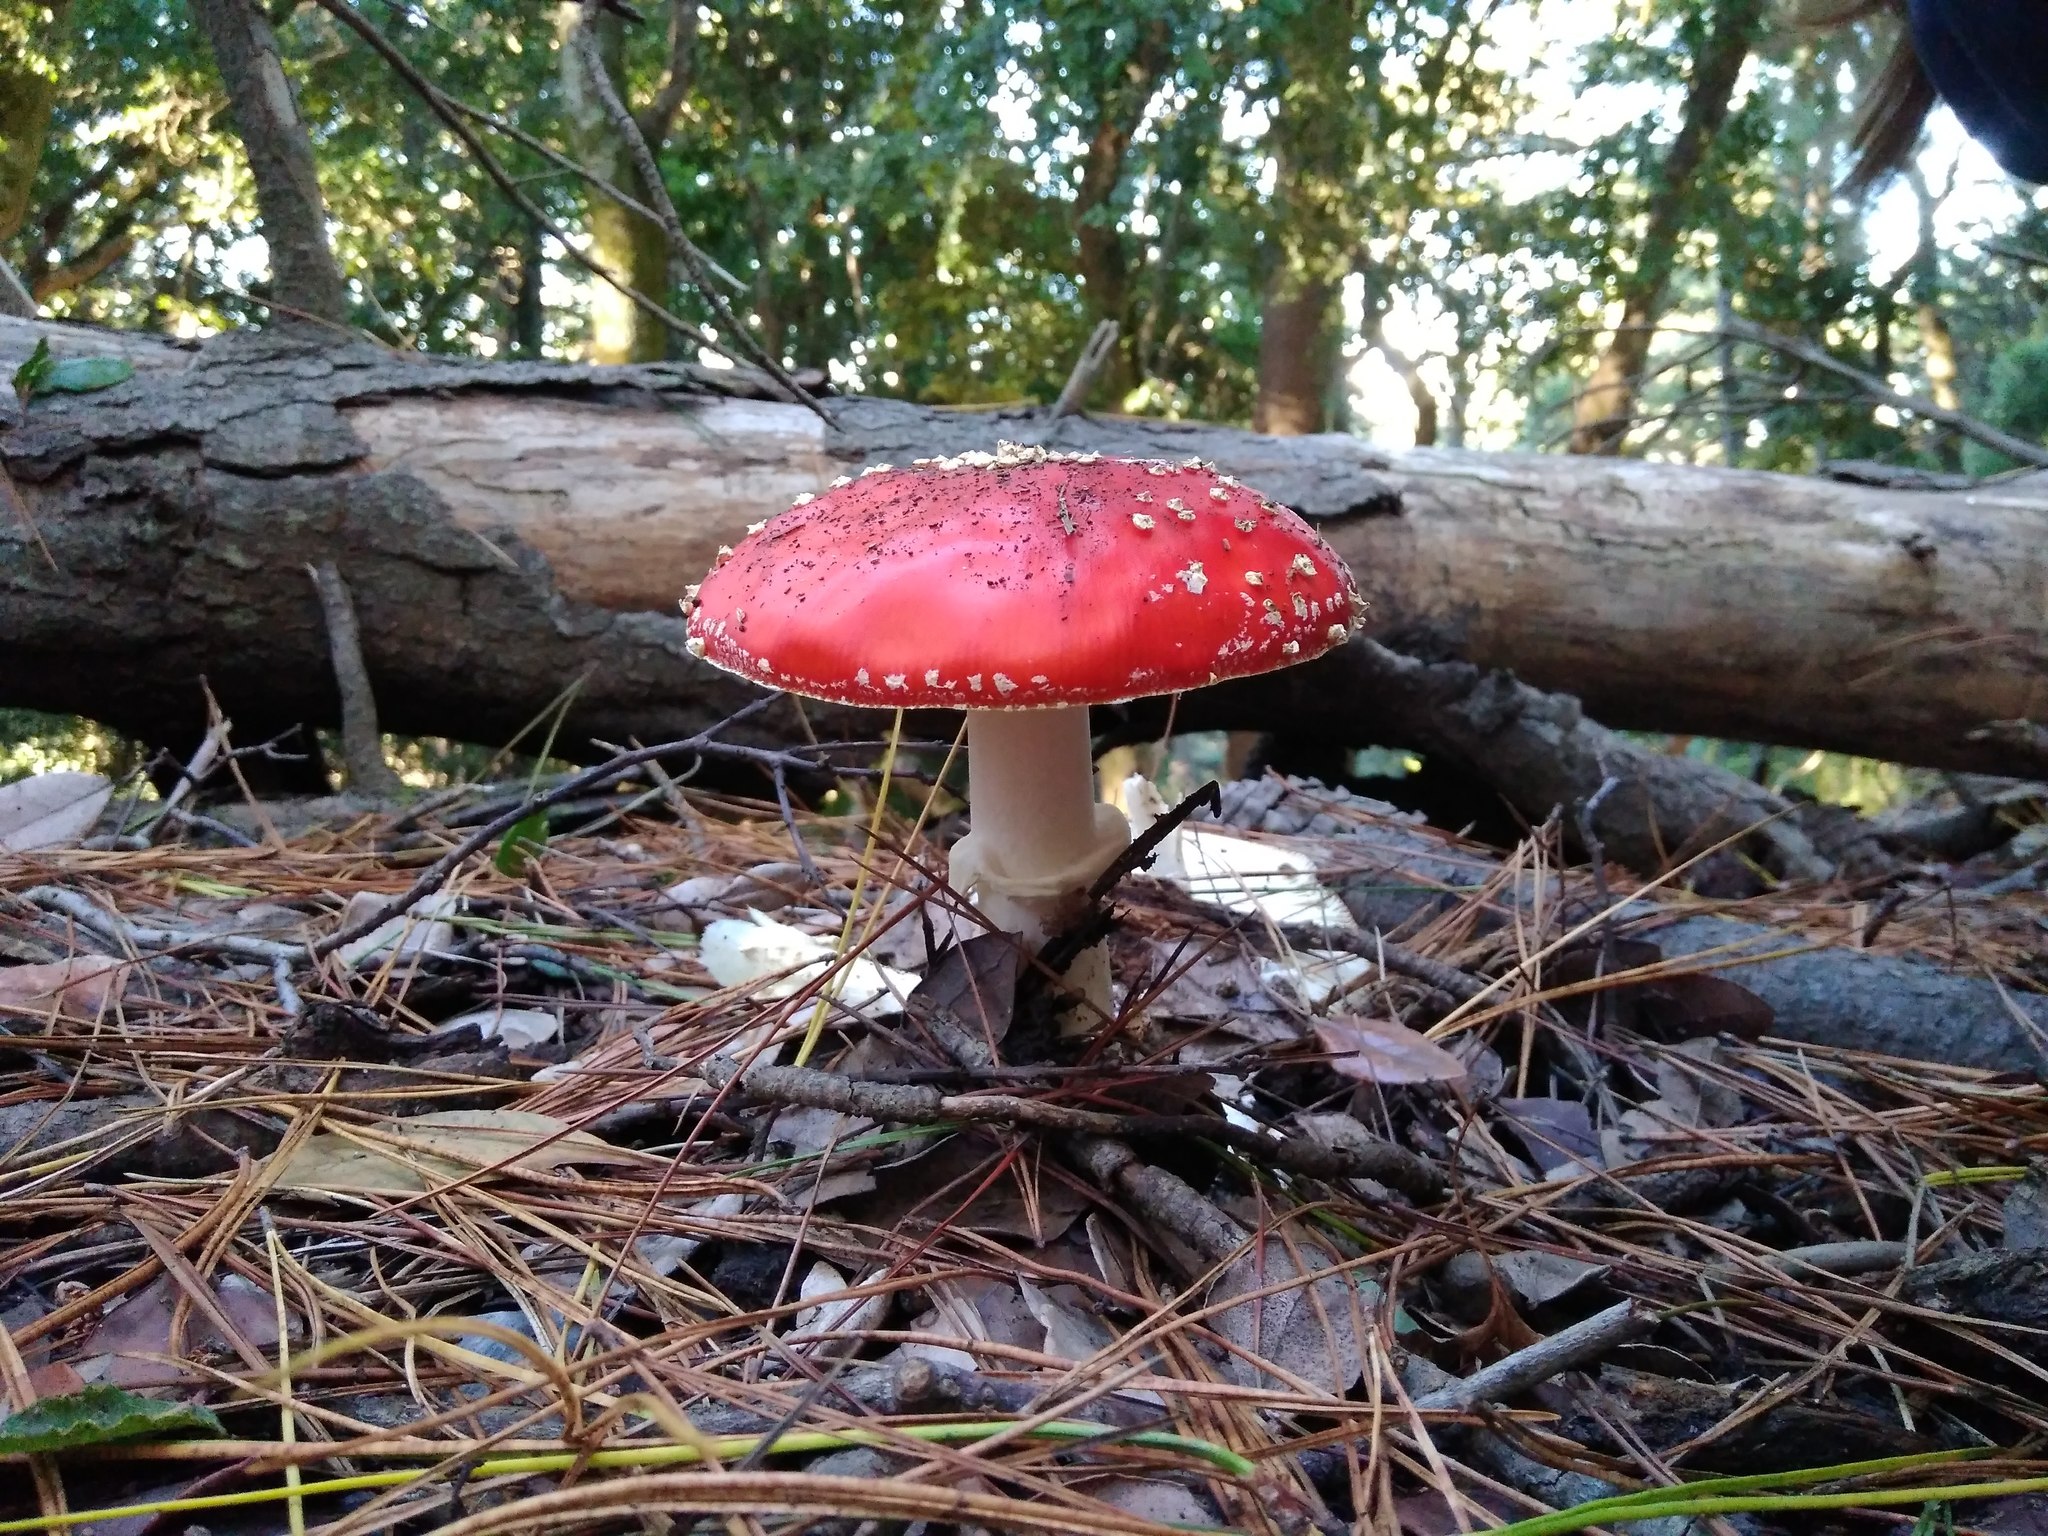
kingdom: Fungi
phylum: Basidiomycota
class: Agaricomycetes
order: Agaricales
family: Amanitaceae
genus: Amanita
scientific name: Amanita muscaria
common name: Fly agaric
